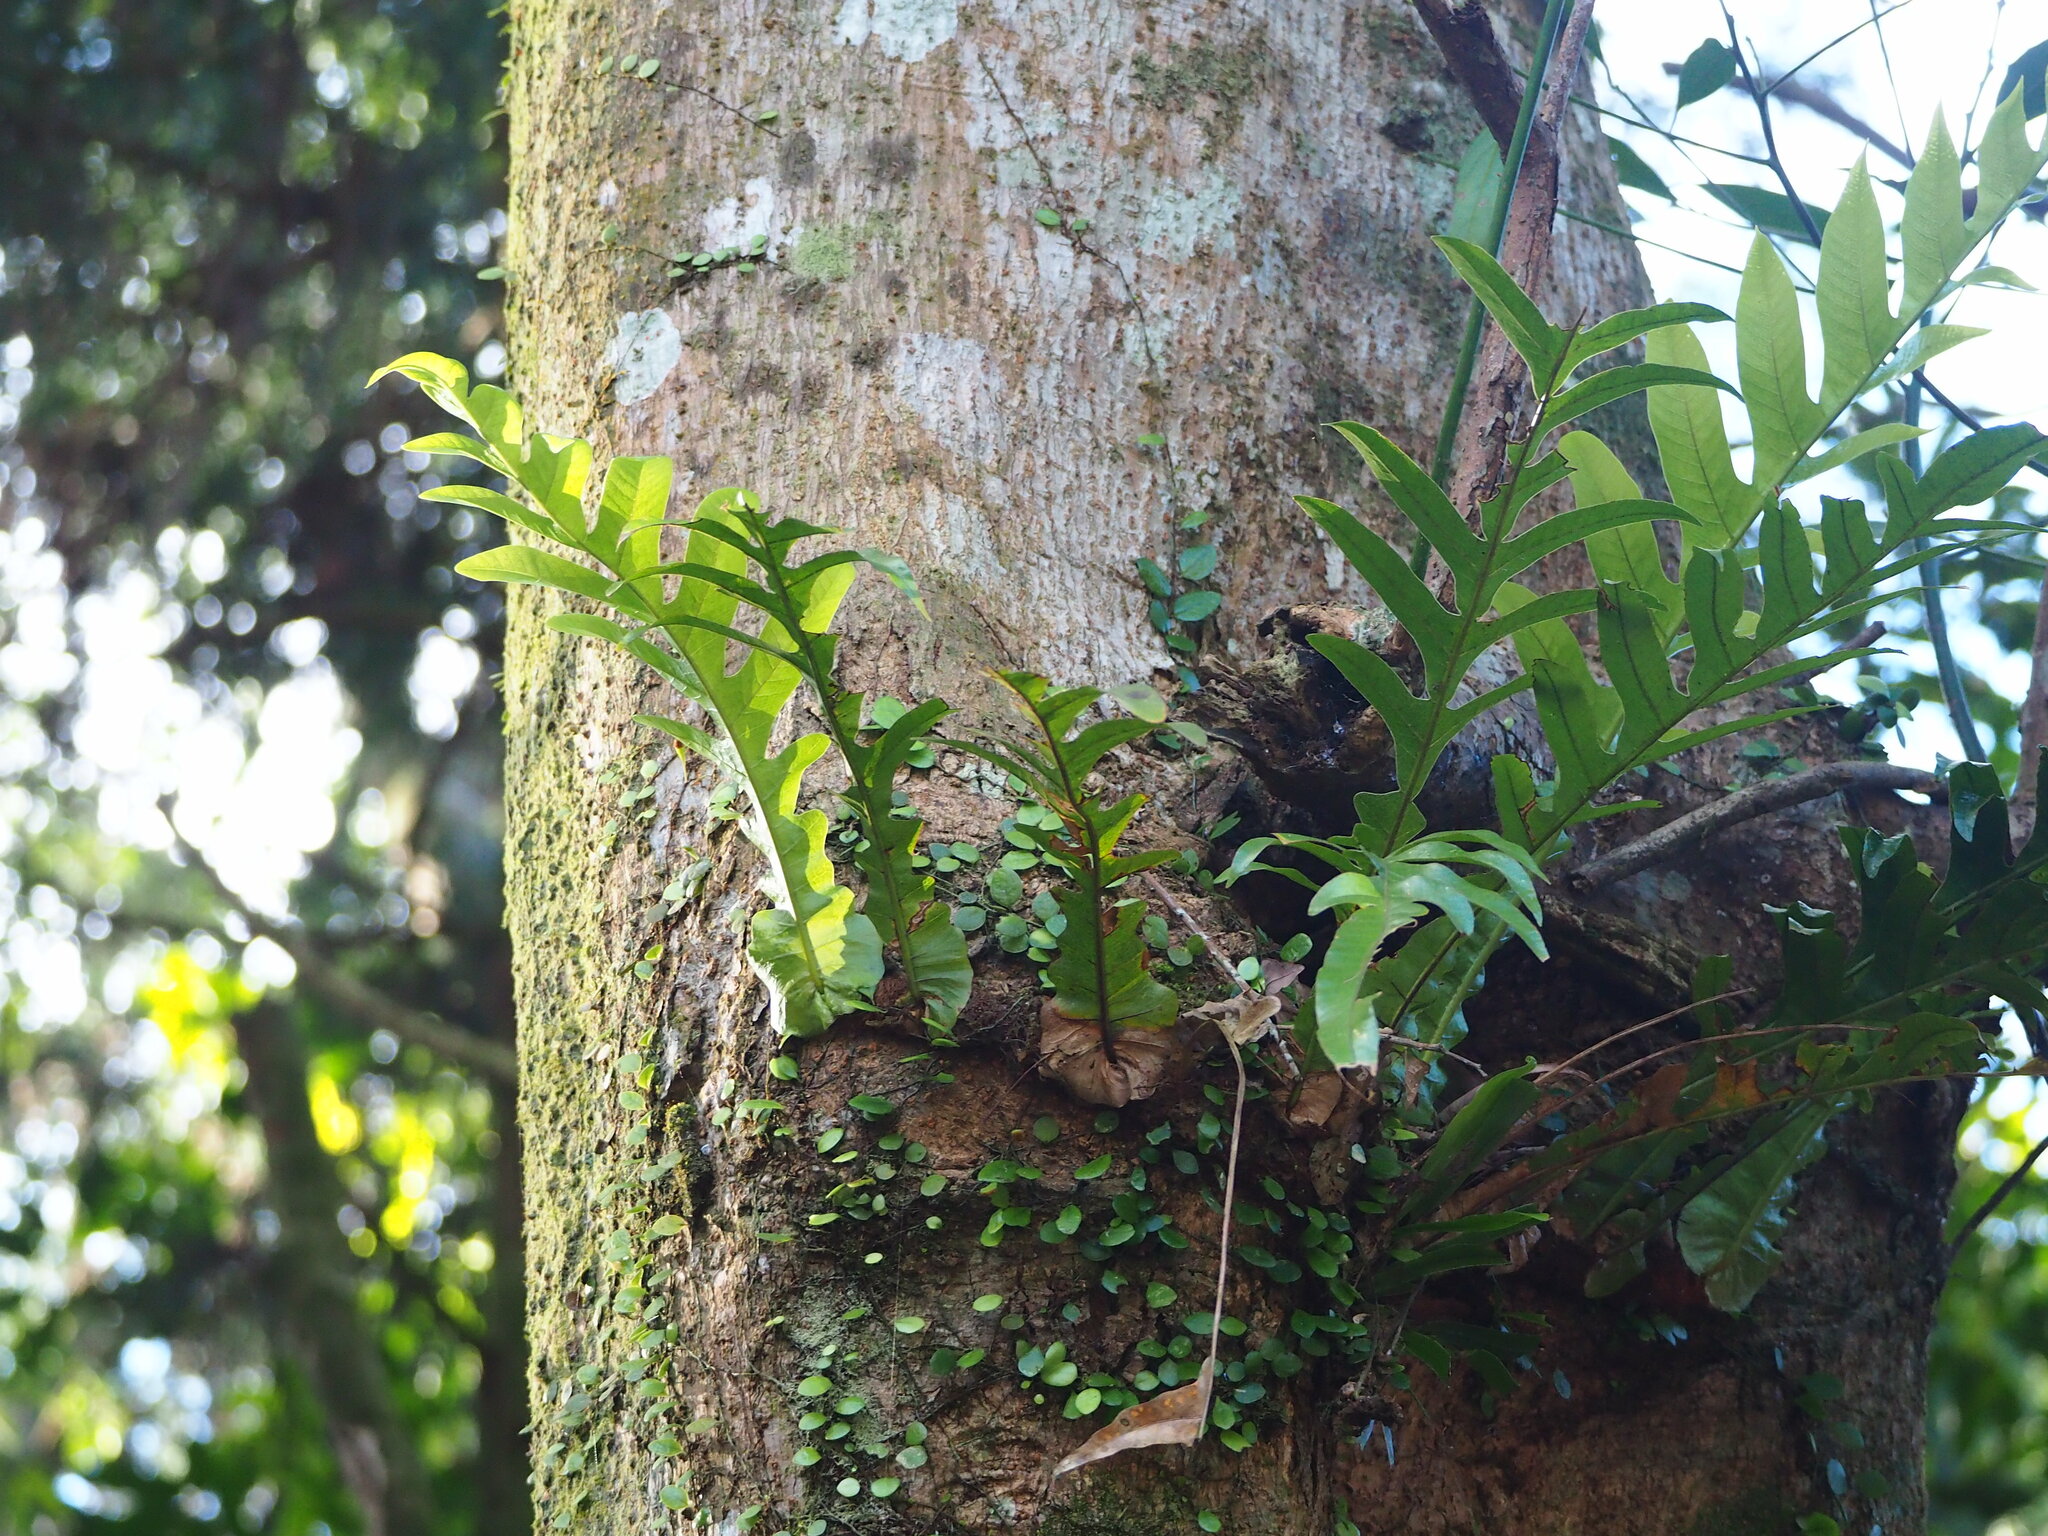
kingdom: Plantae
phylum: Tracheophyta
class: Polypodiopsida
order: Polypodiales
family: Polypodiaceae
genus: Drynaria
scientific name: Drynaria coronans
